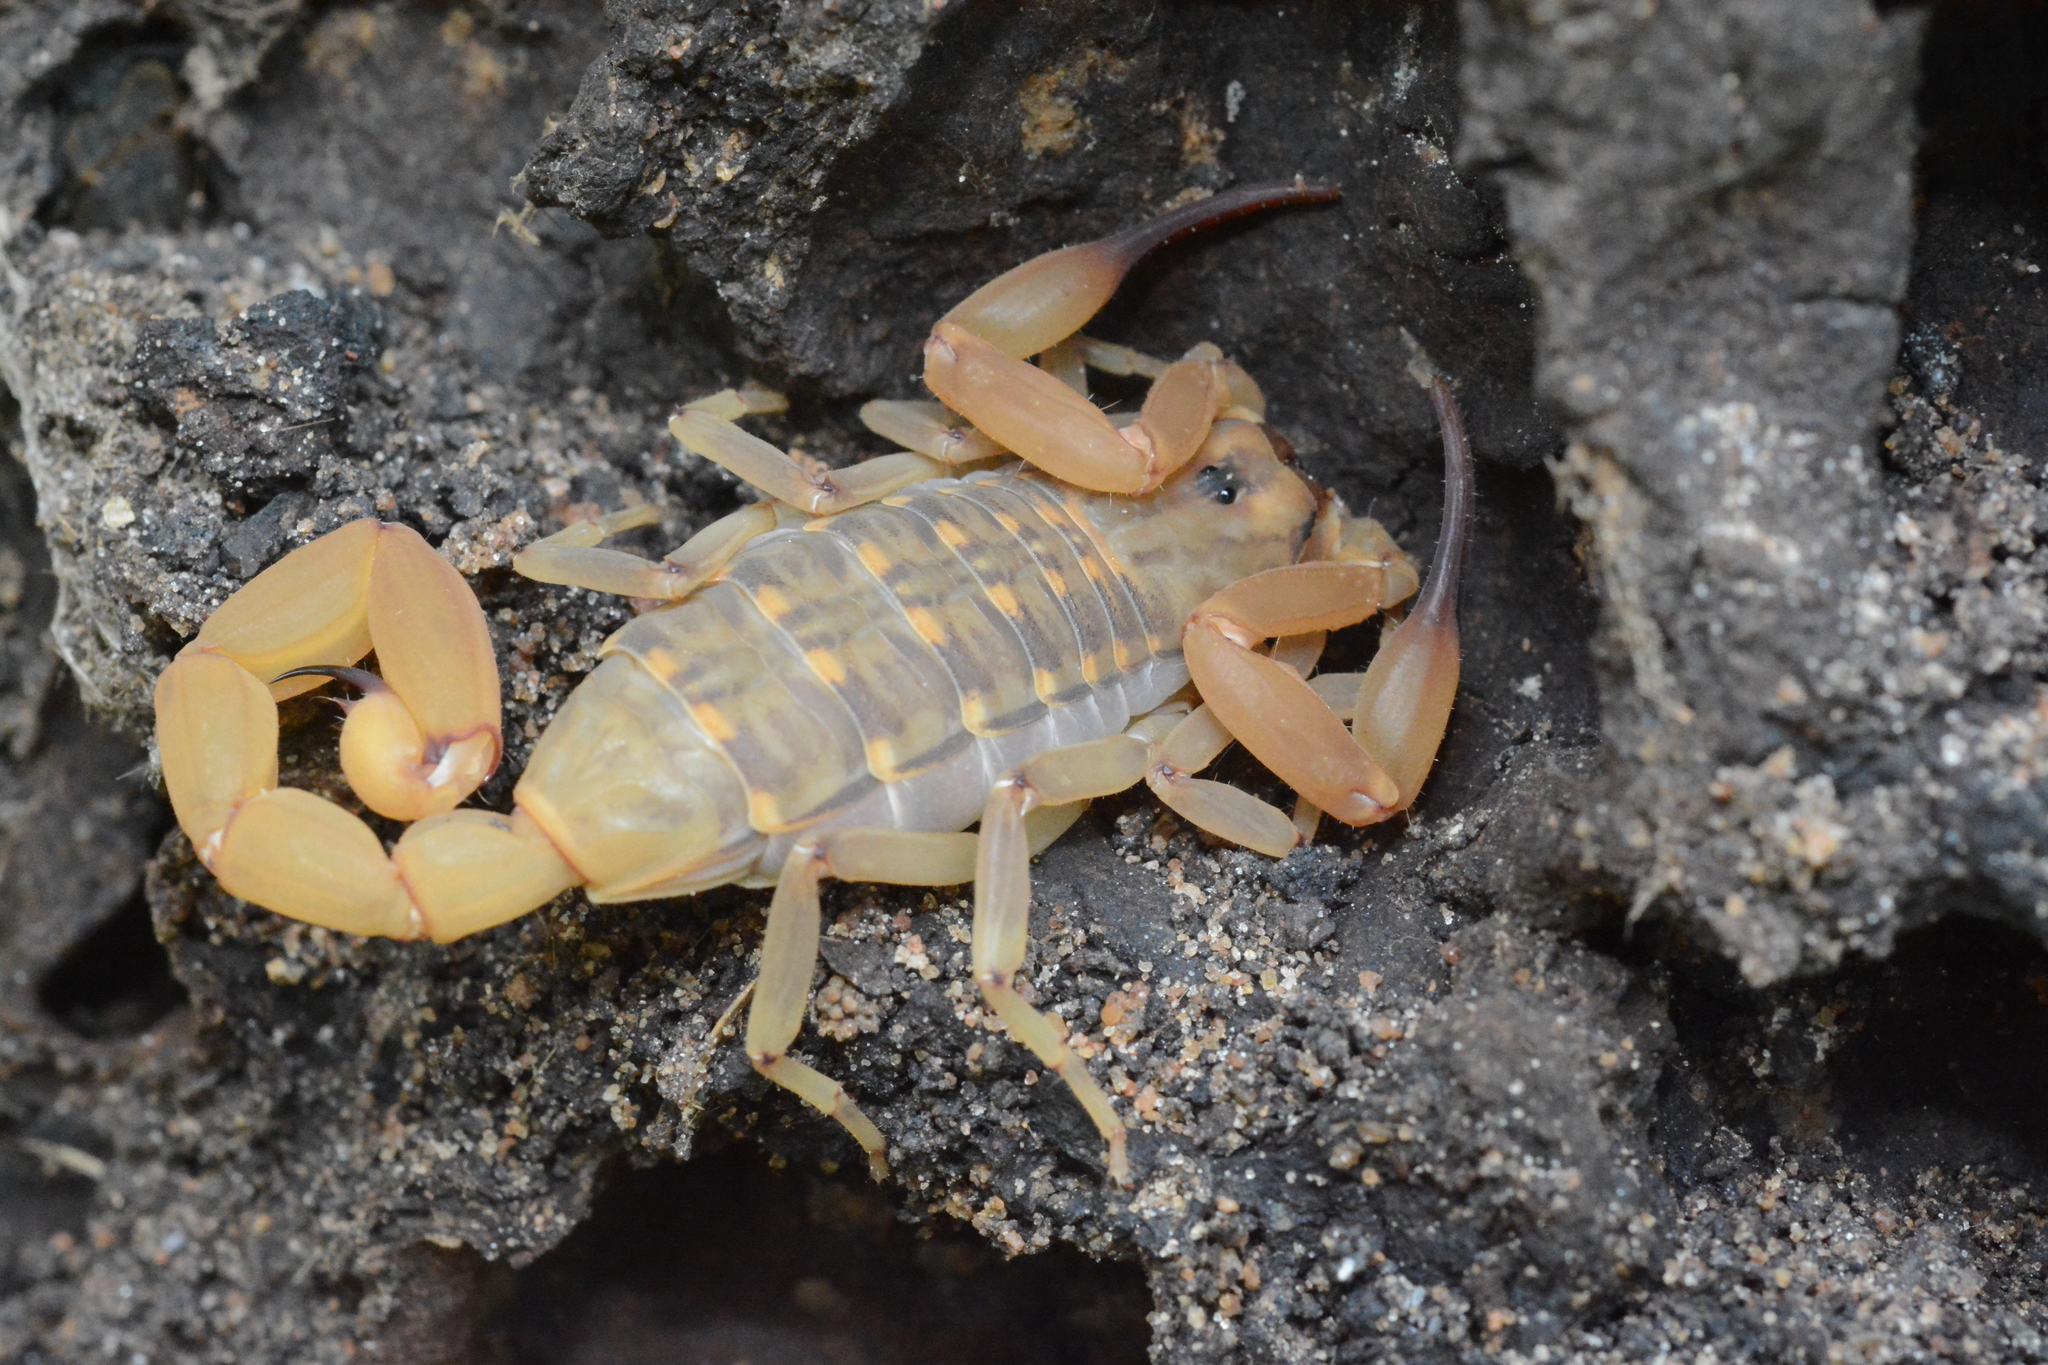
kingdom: Animalia
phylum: Arthropoda
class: Arachnida
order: Scorpiones
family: Buthidae
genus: Babycurus
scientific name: Babycurus centrurimorphus
